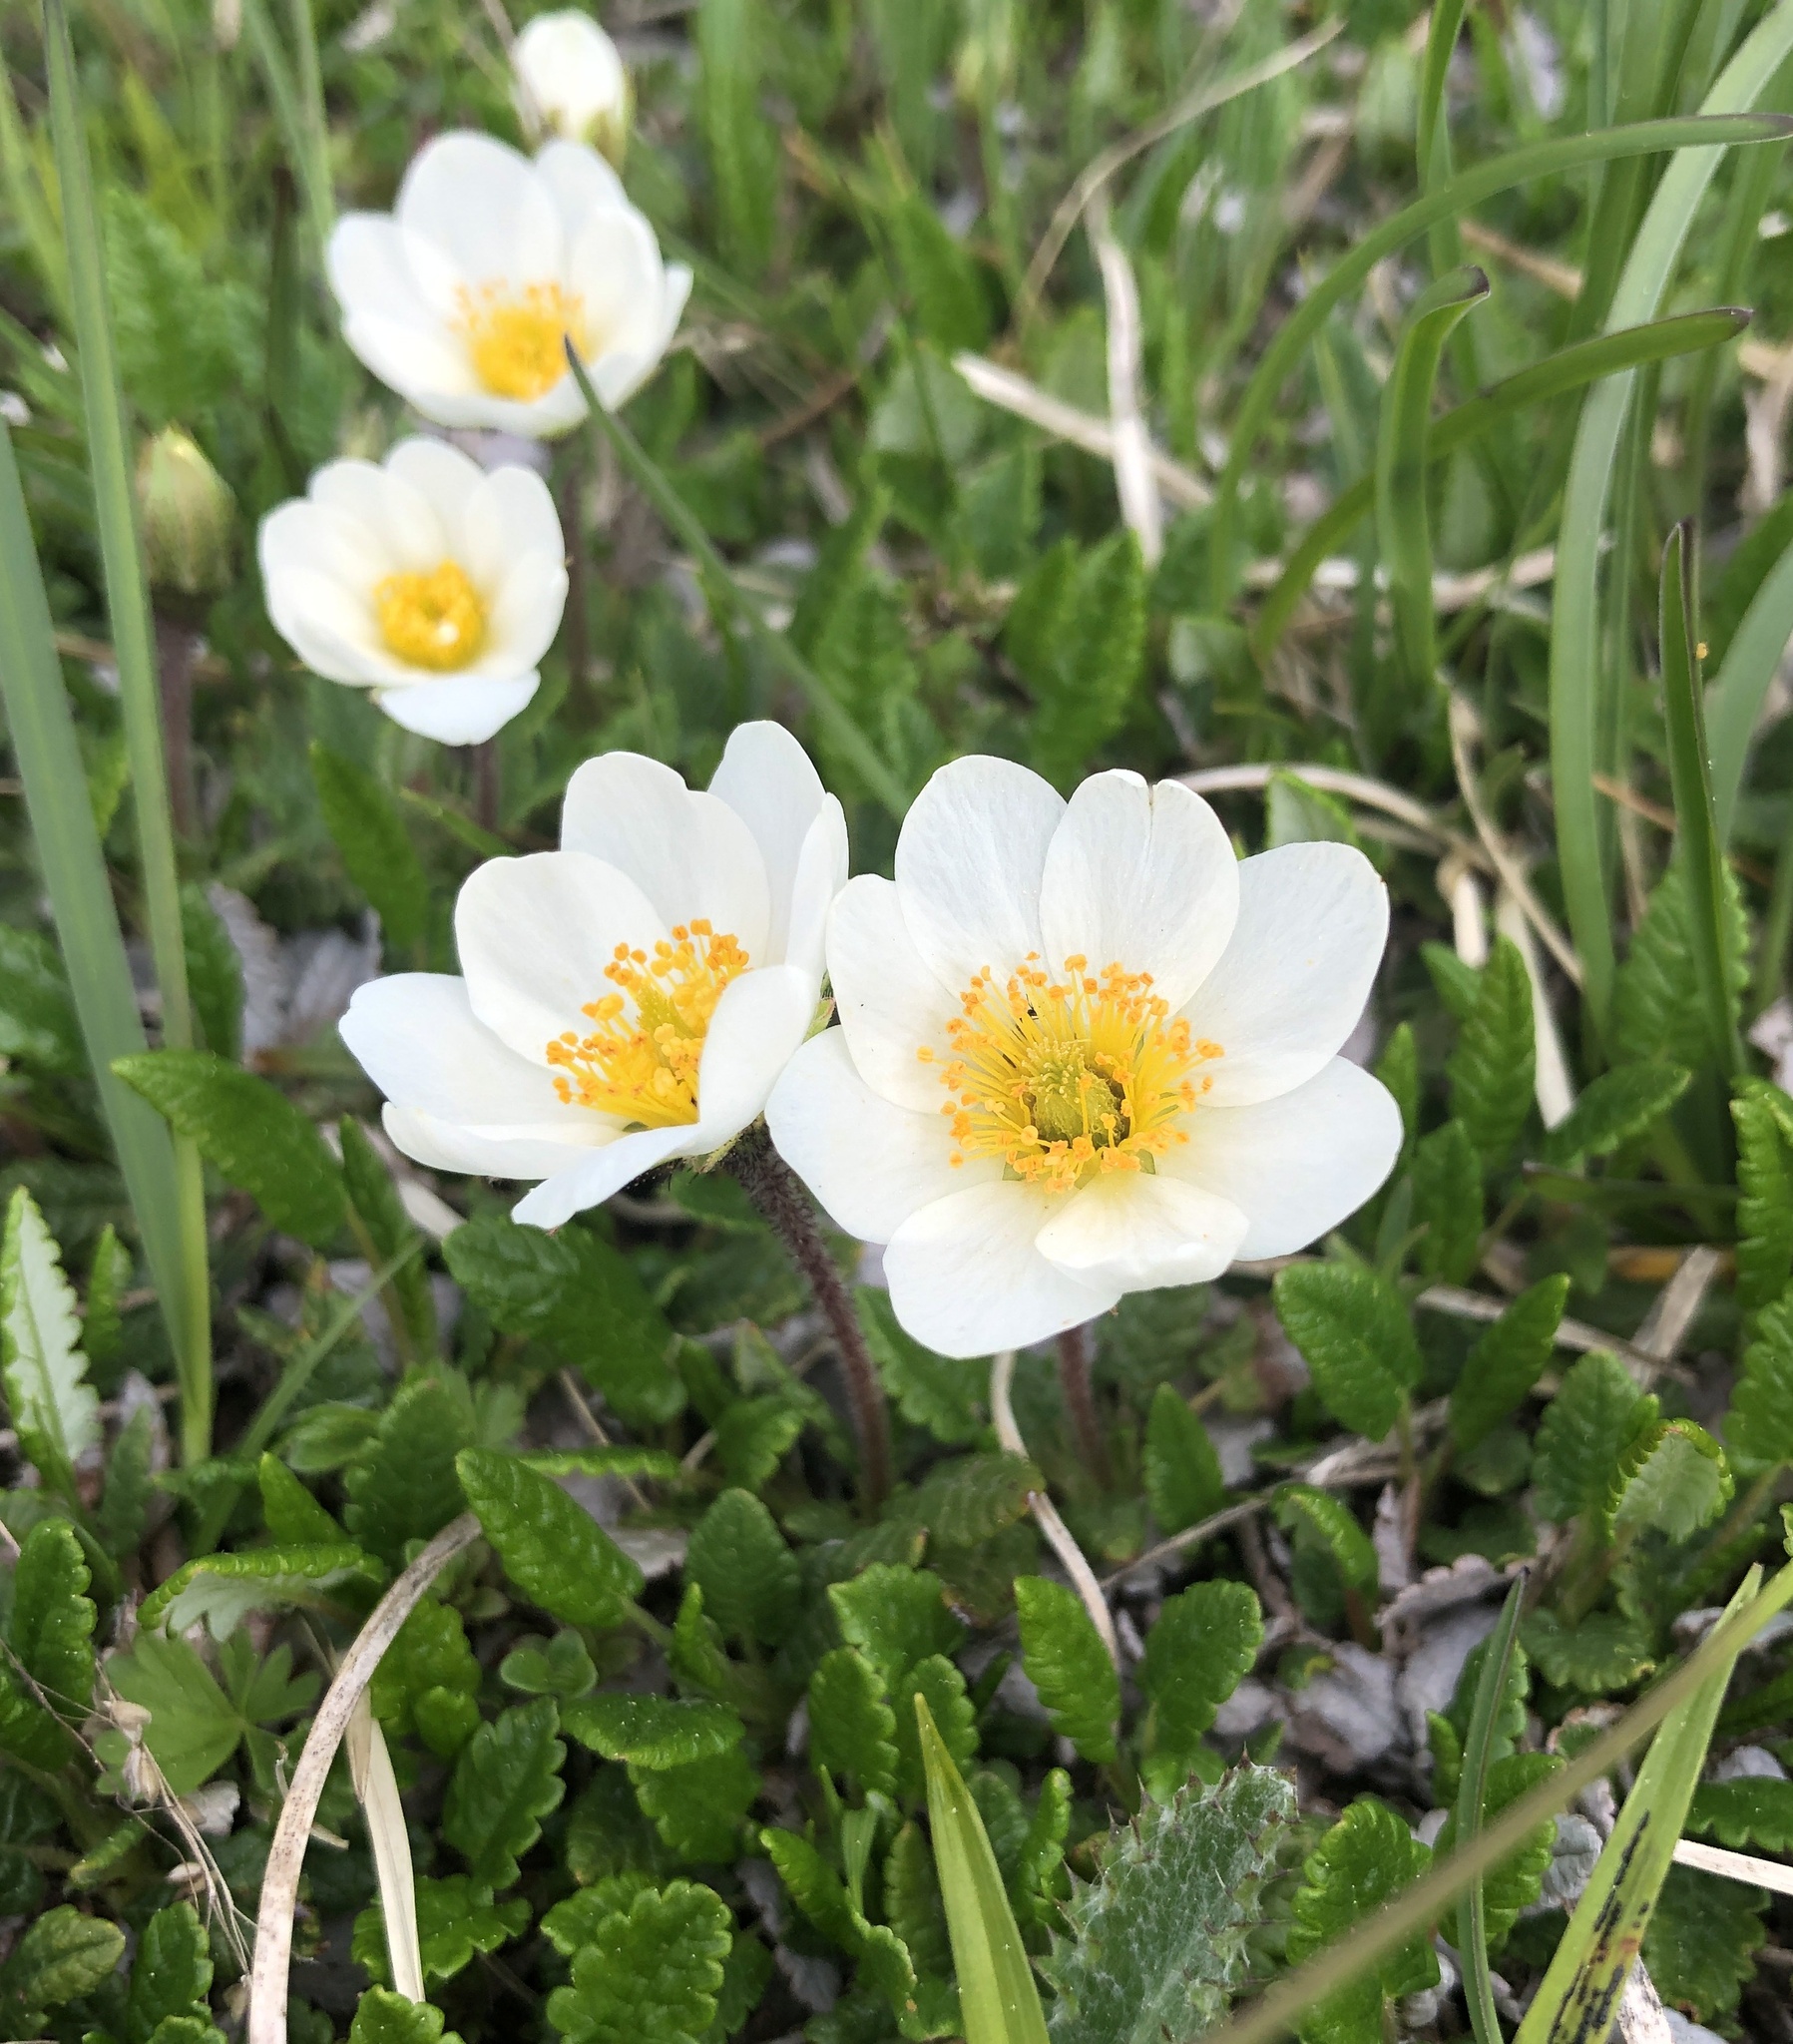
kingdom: Plantae
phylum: Tracheophyta
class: Magnoliopsida
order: Rosales
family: Rosaceae
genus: Dryas
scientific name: Dryas octopetala
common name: Eight-petal mountain-avens
